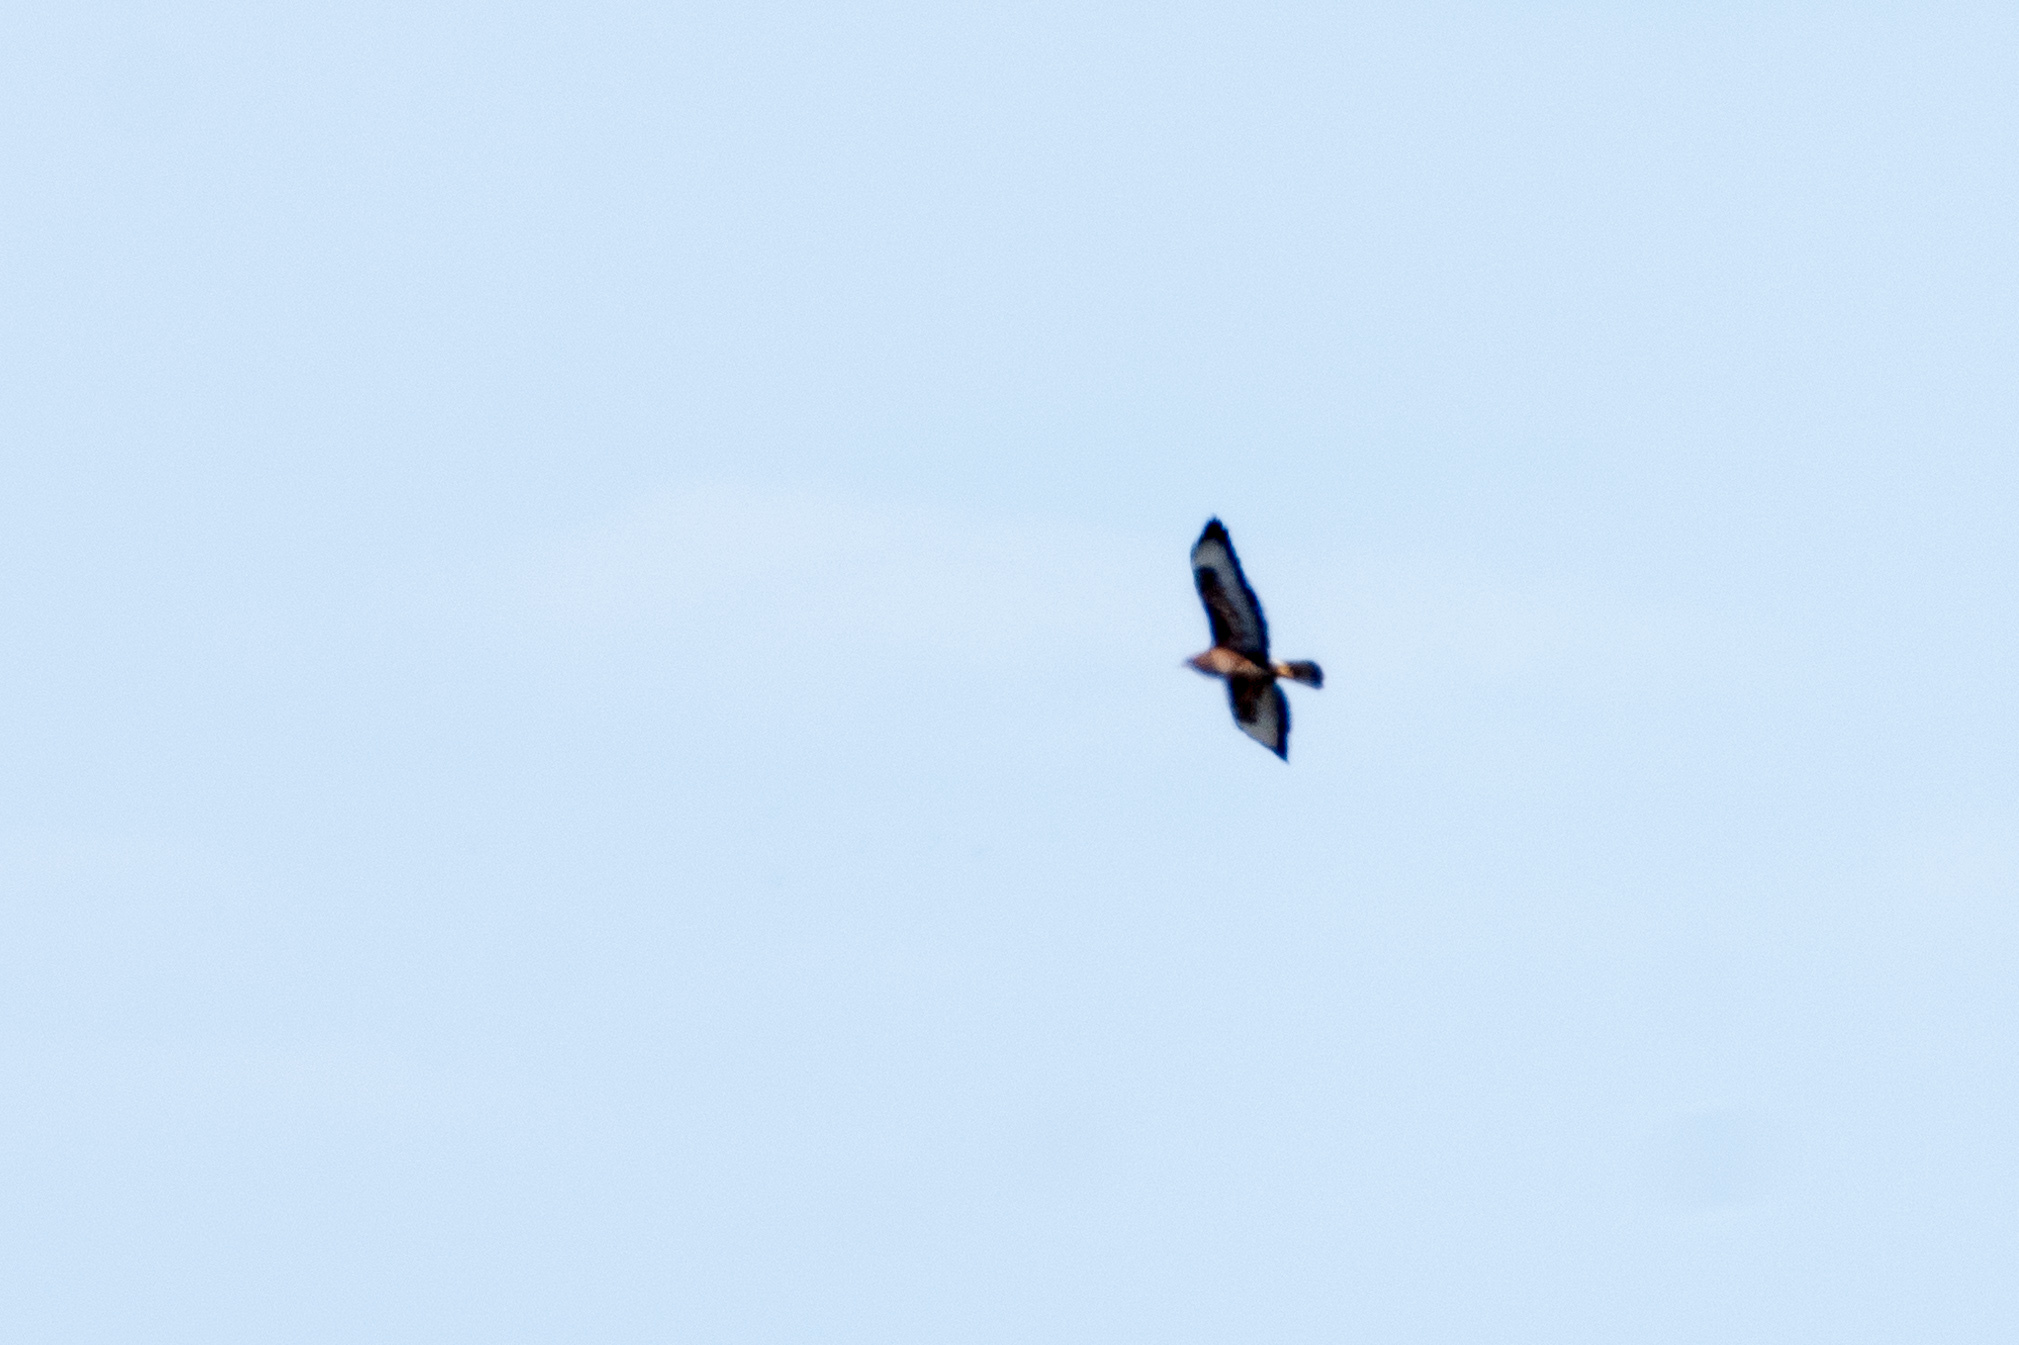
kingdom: Animalia
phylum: Chordata
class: Aves
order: Accipitriformes
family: Accipitridae
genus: Buteo
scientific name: Buteo buteo
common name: Common buzzard
